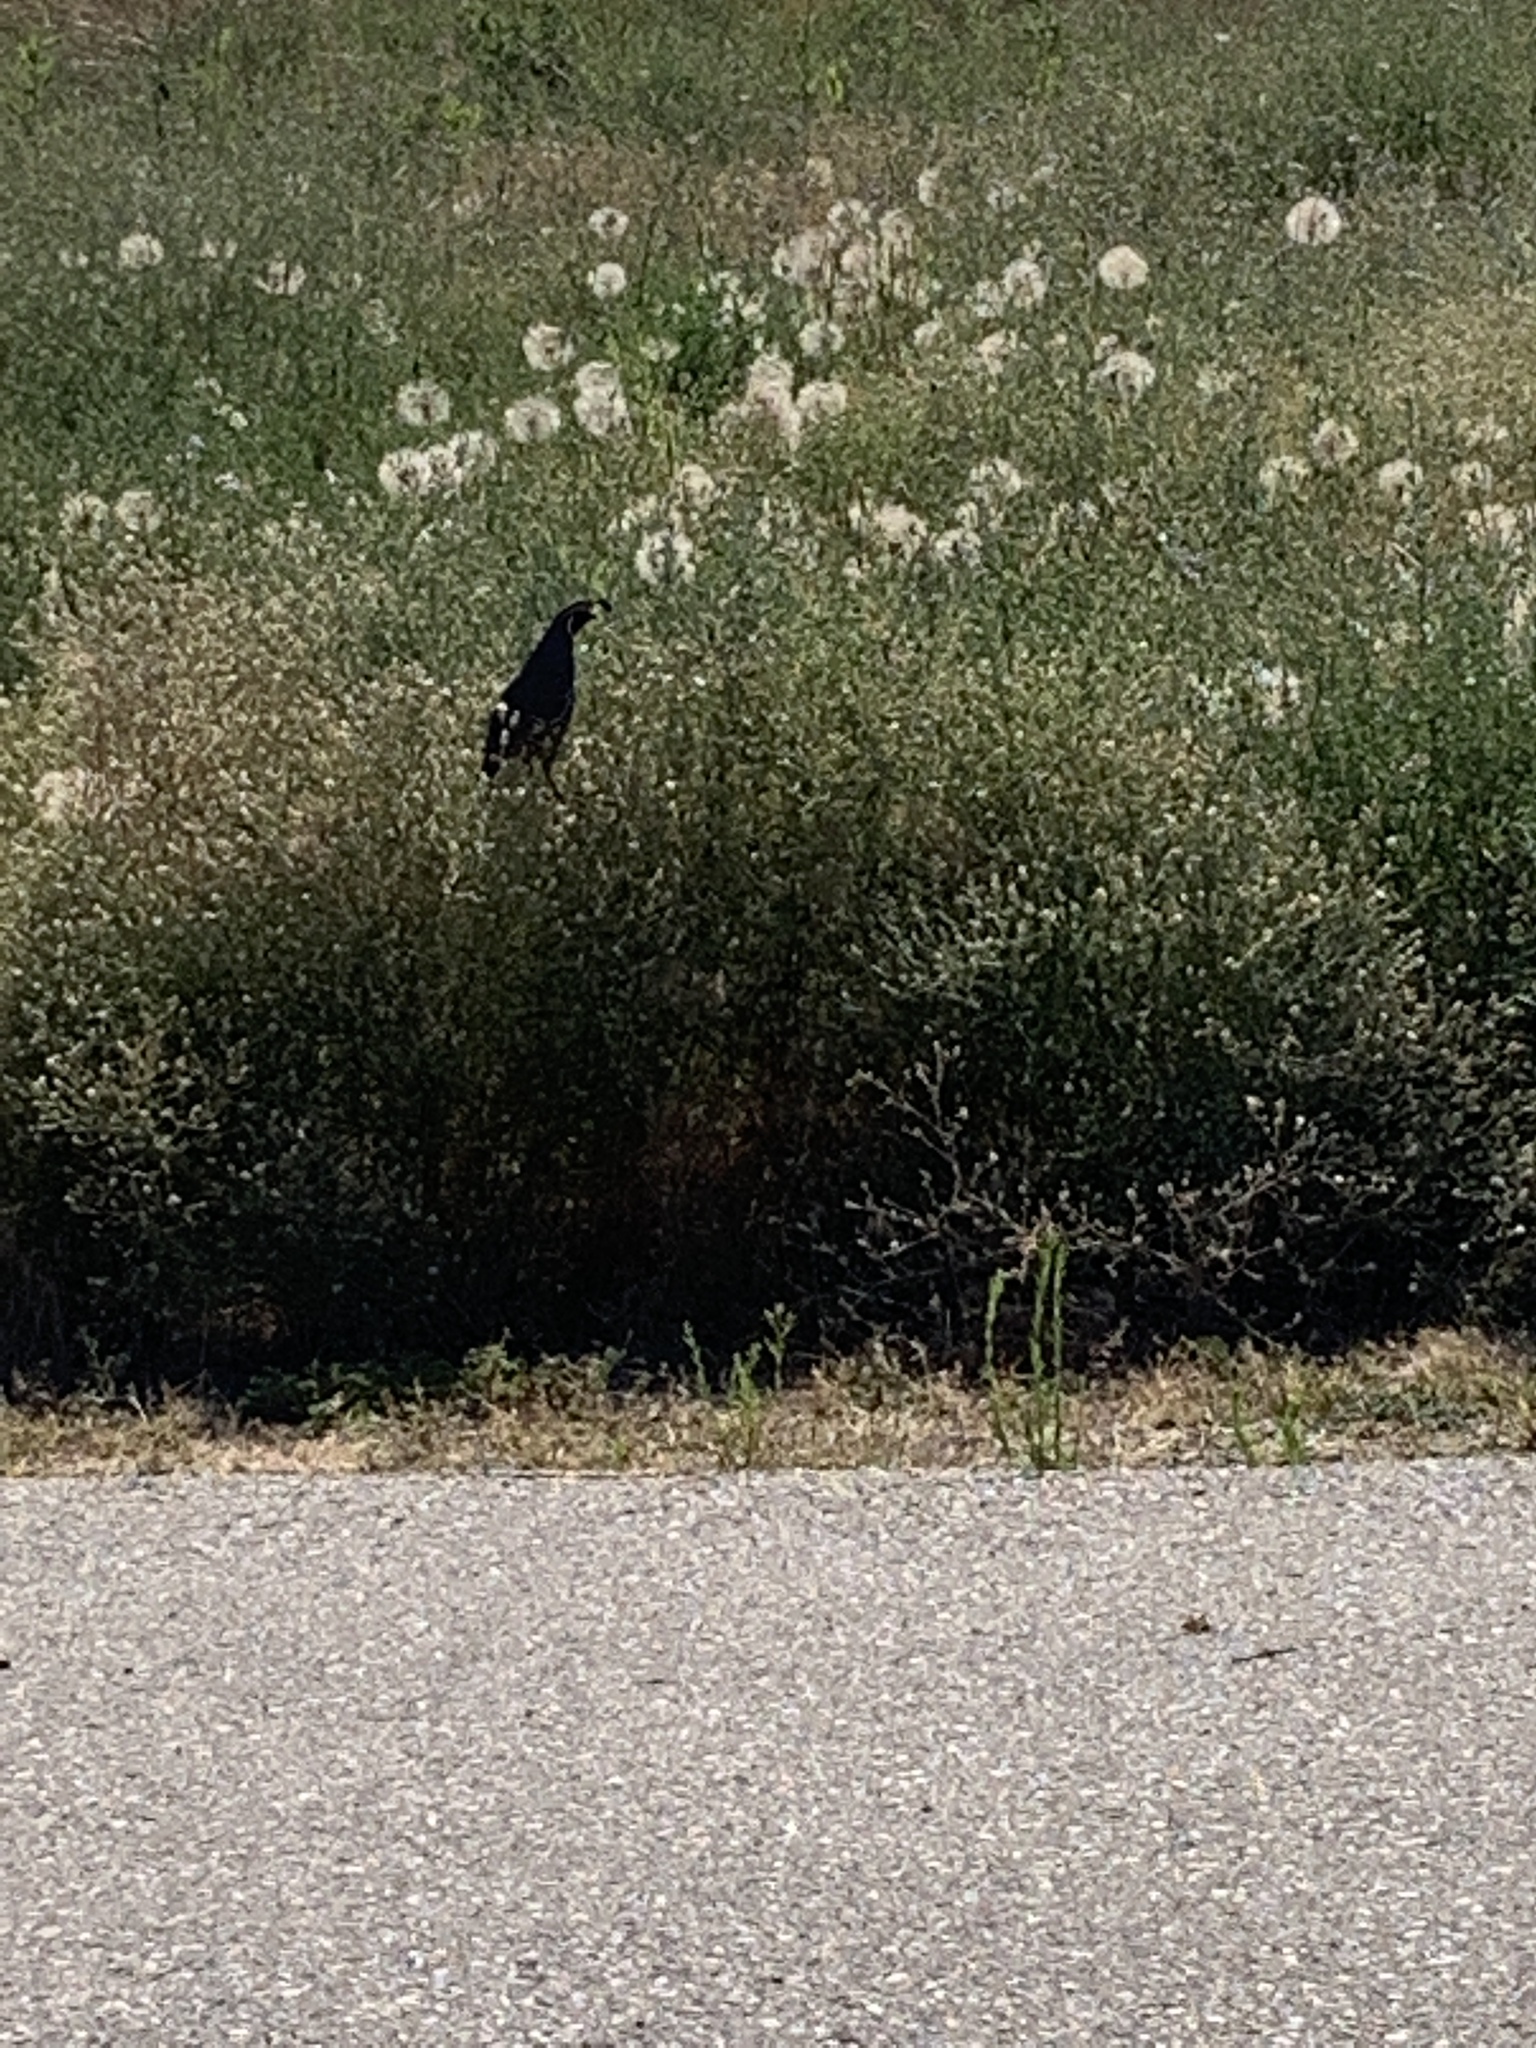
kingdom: Animalia
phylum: Chordata
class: Aves
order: Galliformes
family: Odontophoridae
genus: Callipepla
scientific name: Callipepla californica
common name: California quail
